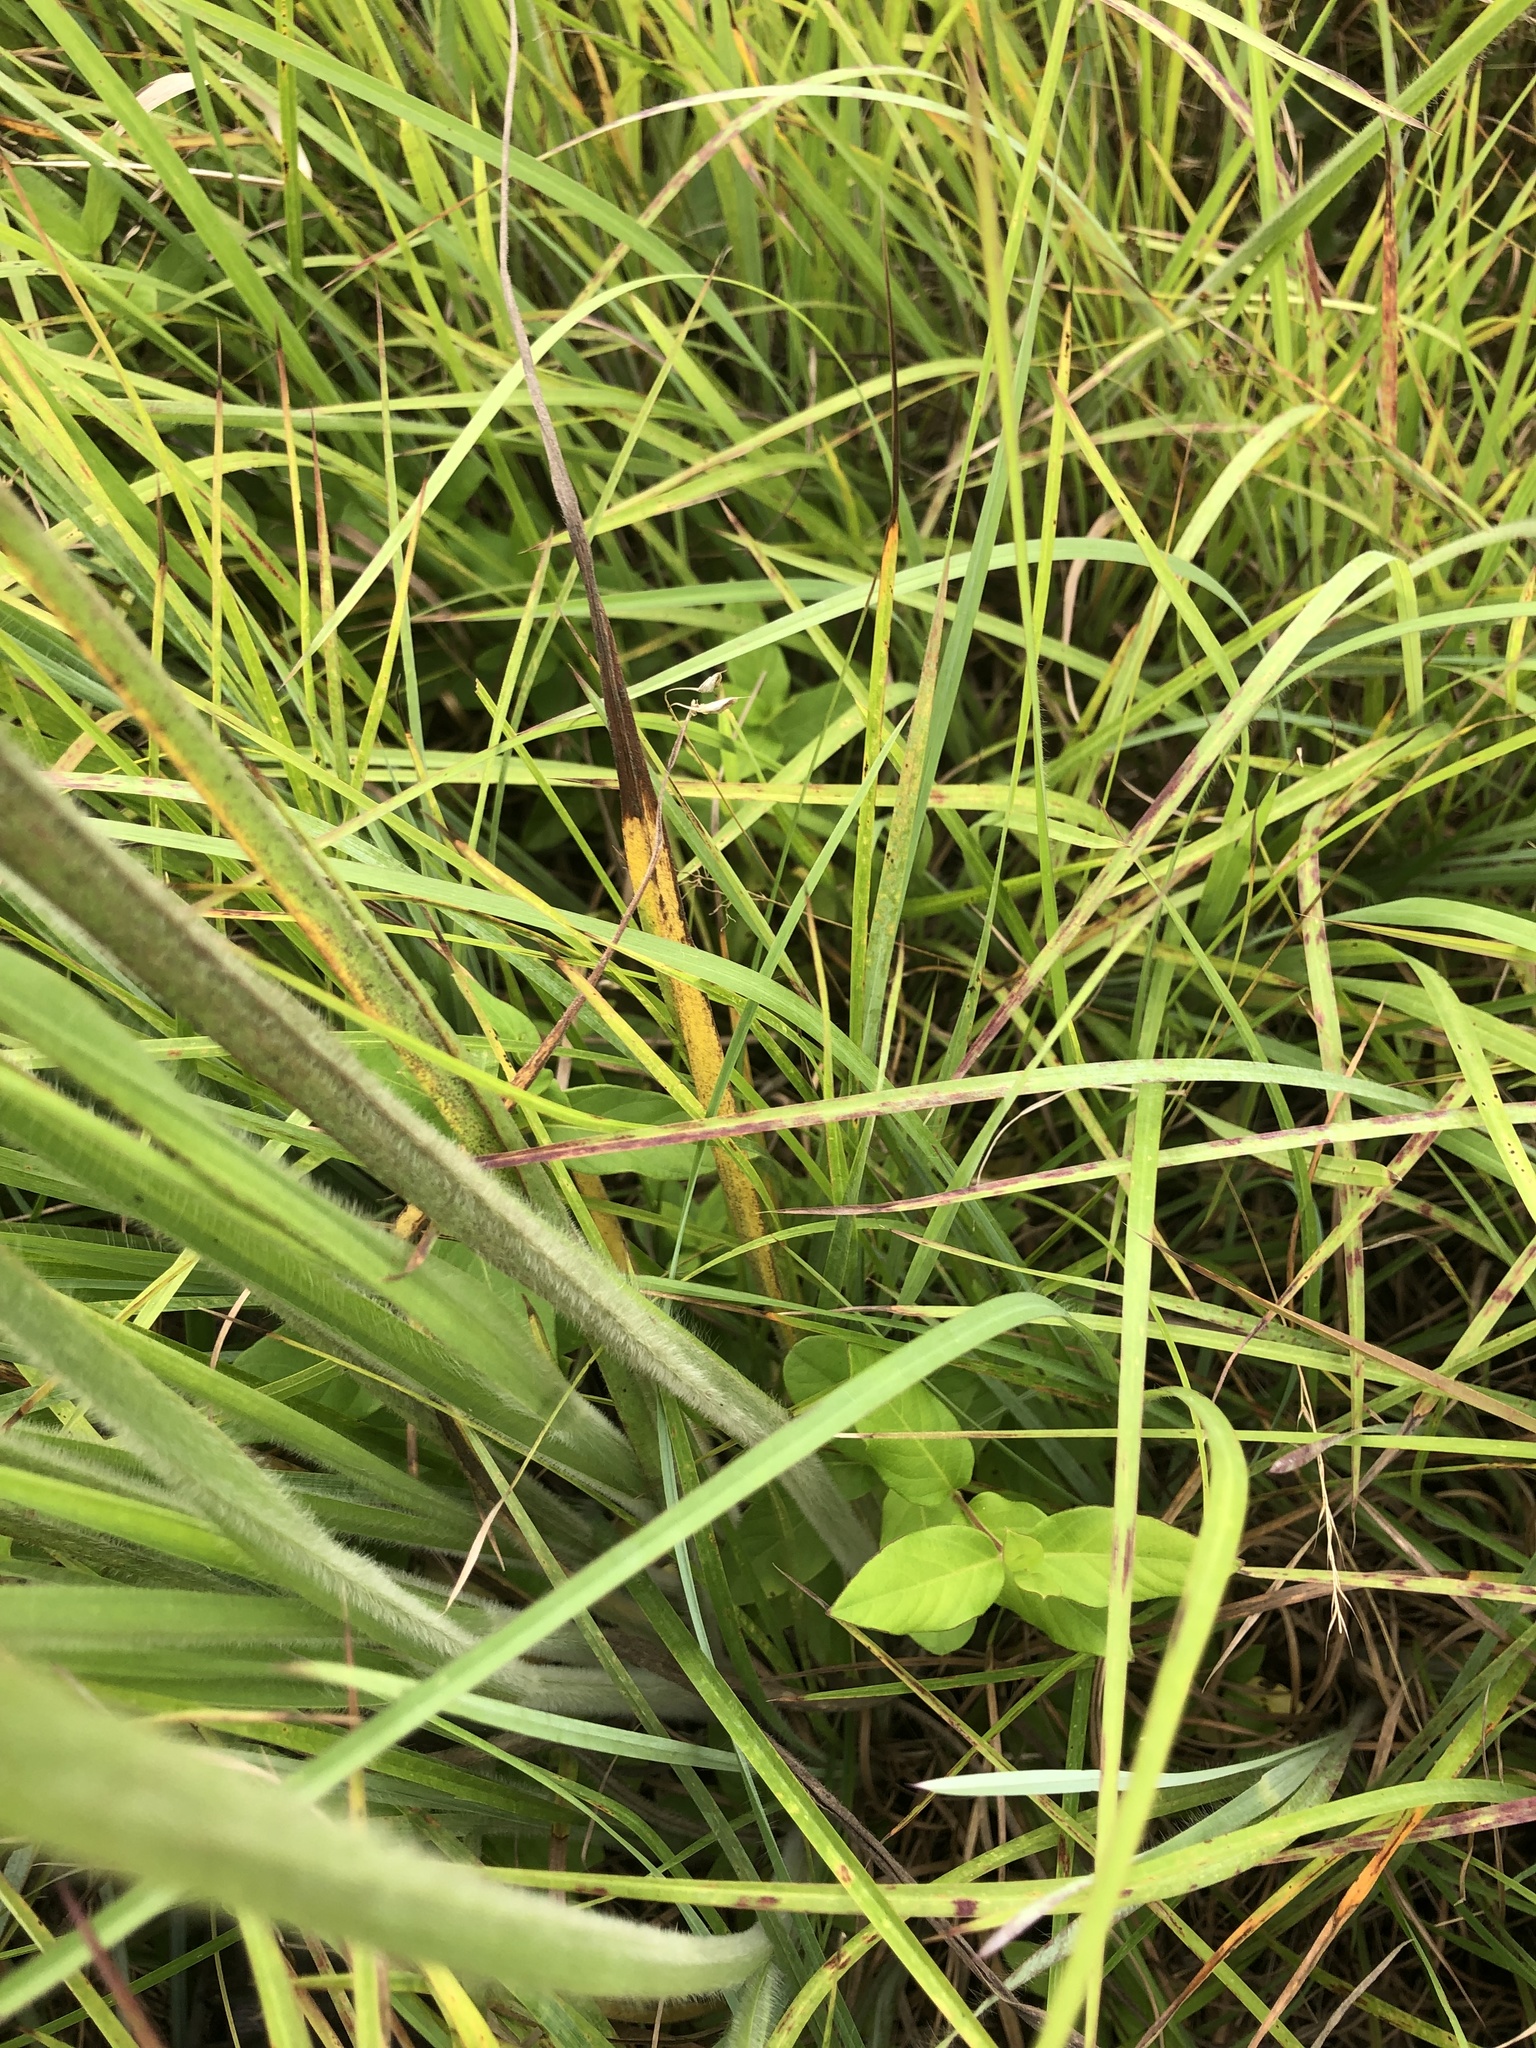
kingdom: Plantae
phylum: Tracheophyta
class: Liliopsida
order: Poales
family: Poaceae
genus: Paspalum
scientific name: Paspalum floridanum
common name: Florida paspalum
